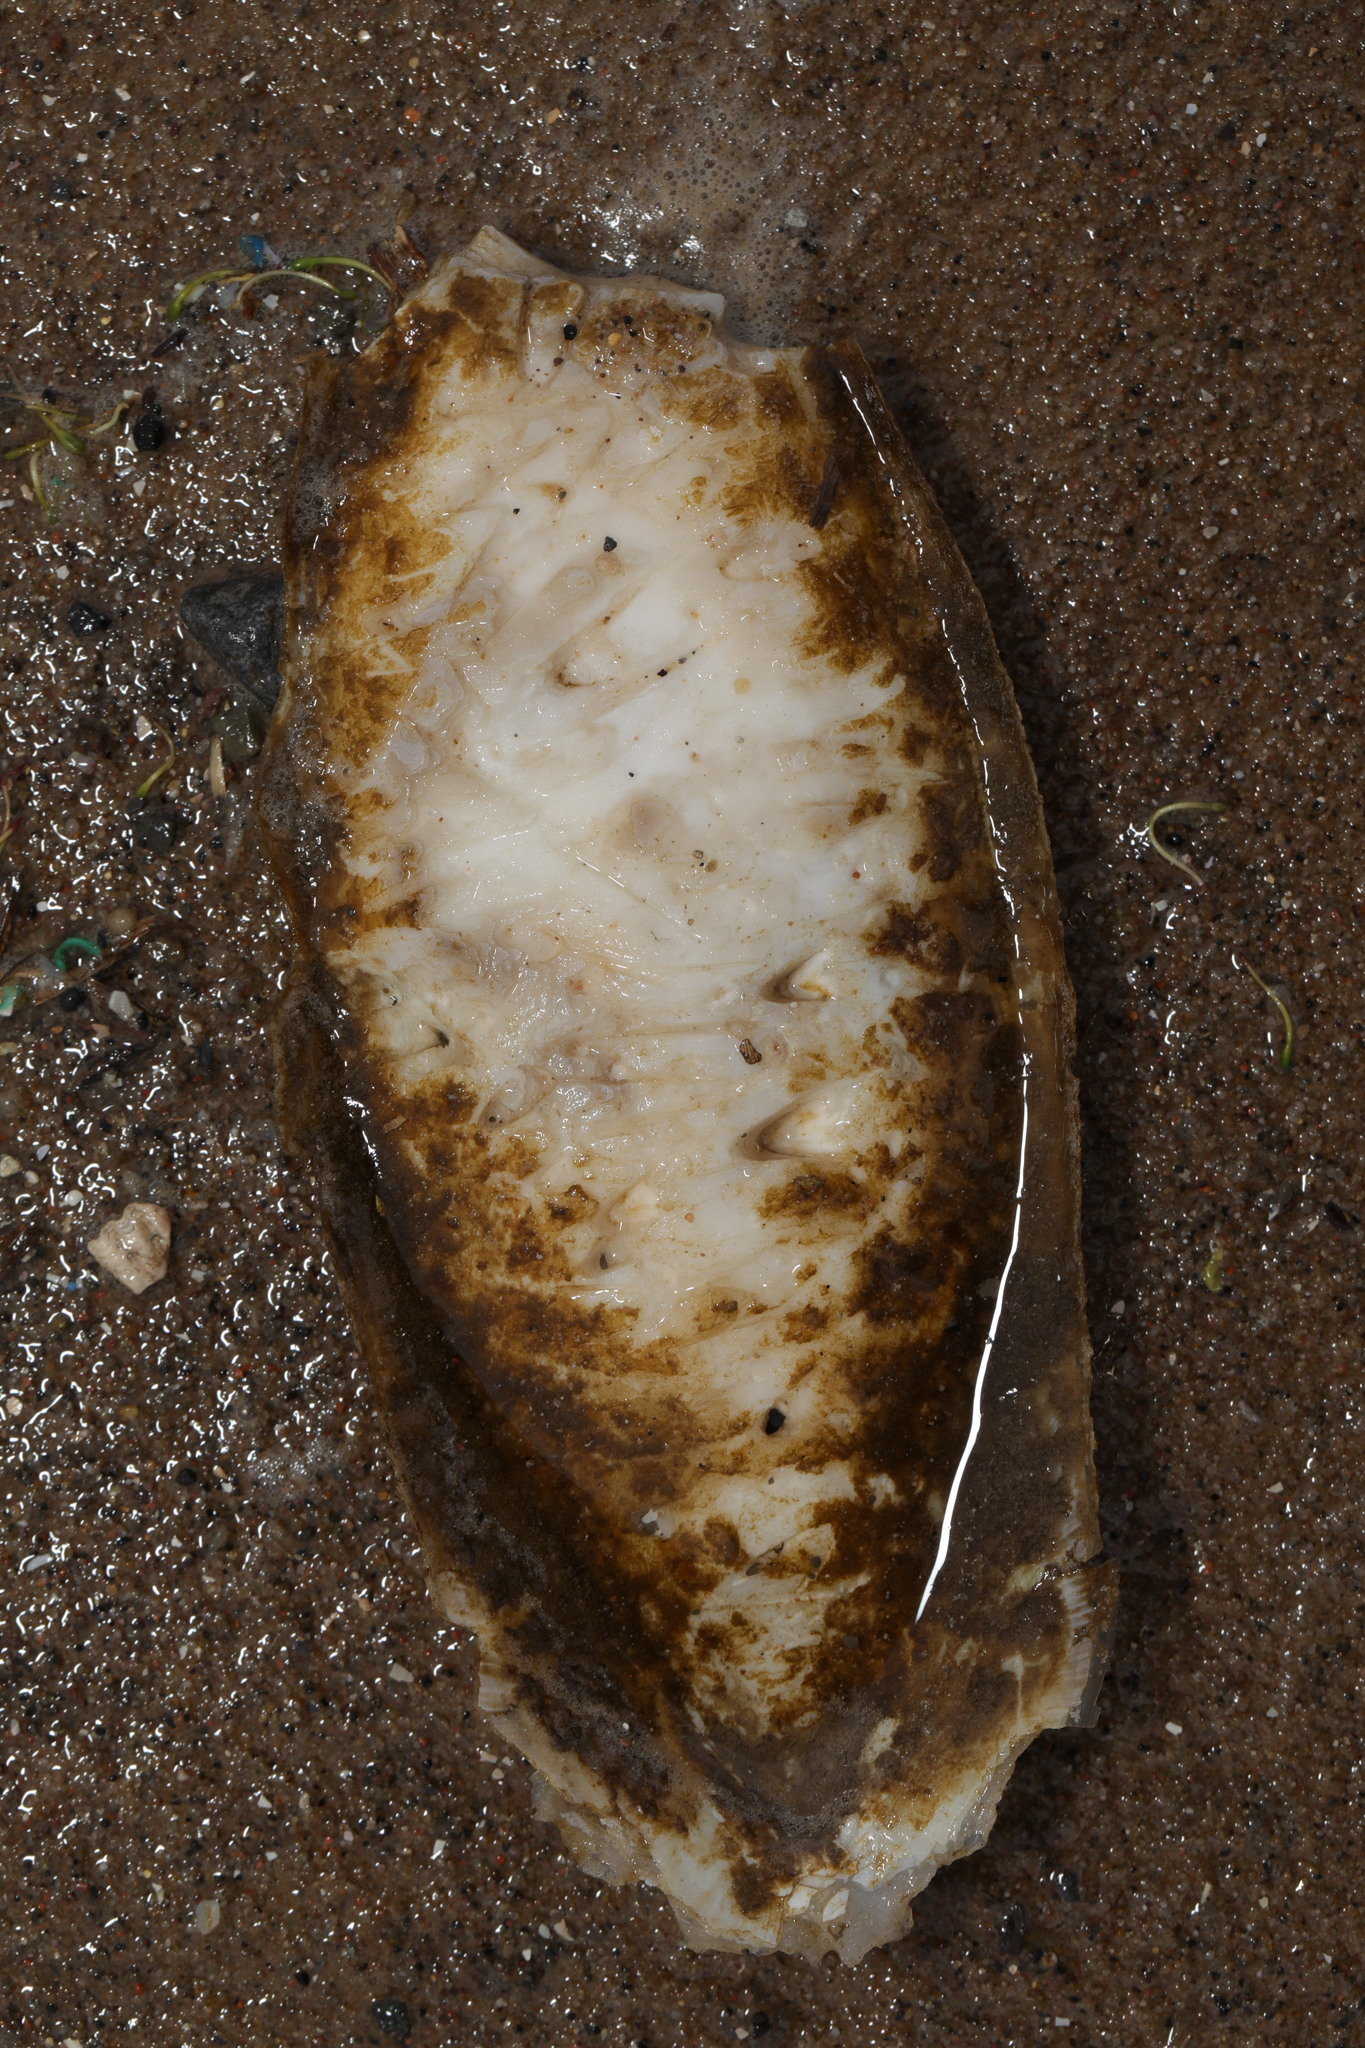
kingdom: Animalia
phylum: Mollusca
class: Cephalopoda
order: Sepiida
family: Sepiidae
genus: Sepia
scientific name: Sepia officinalis
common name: Common cuttlefish
